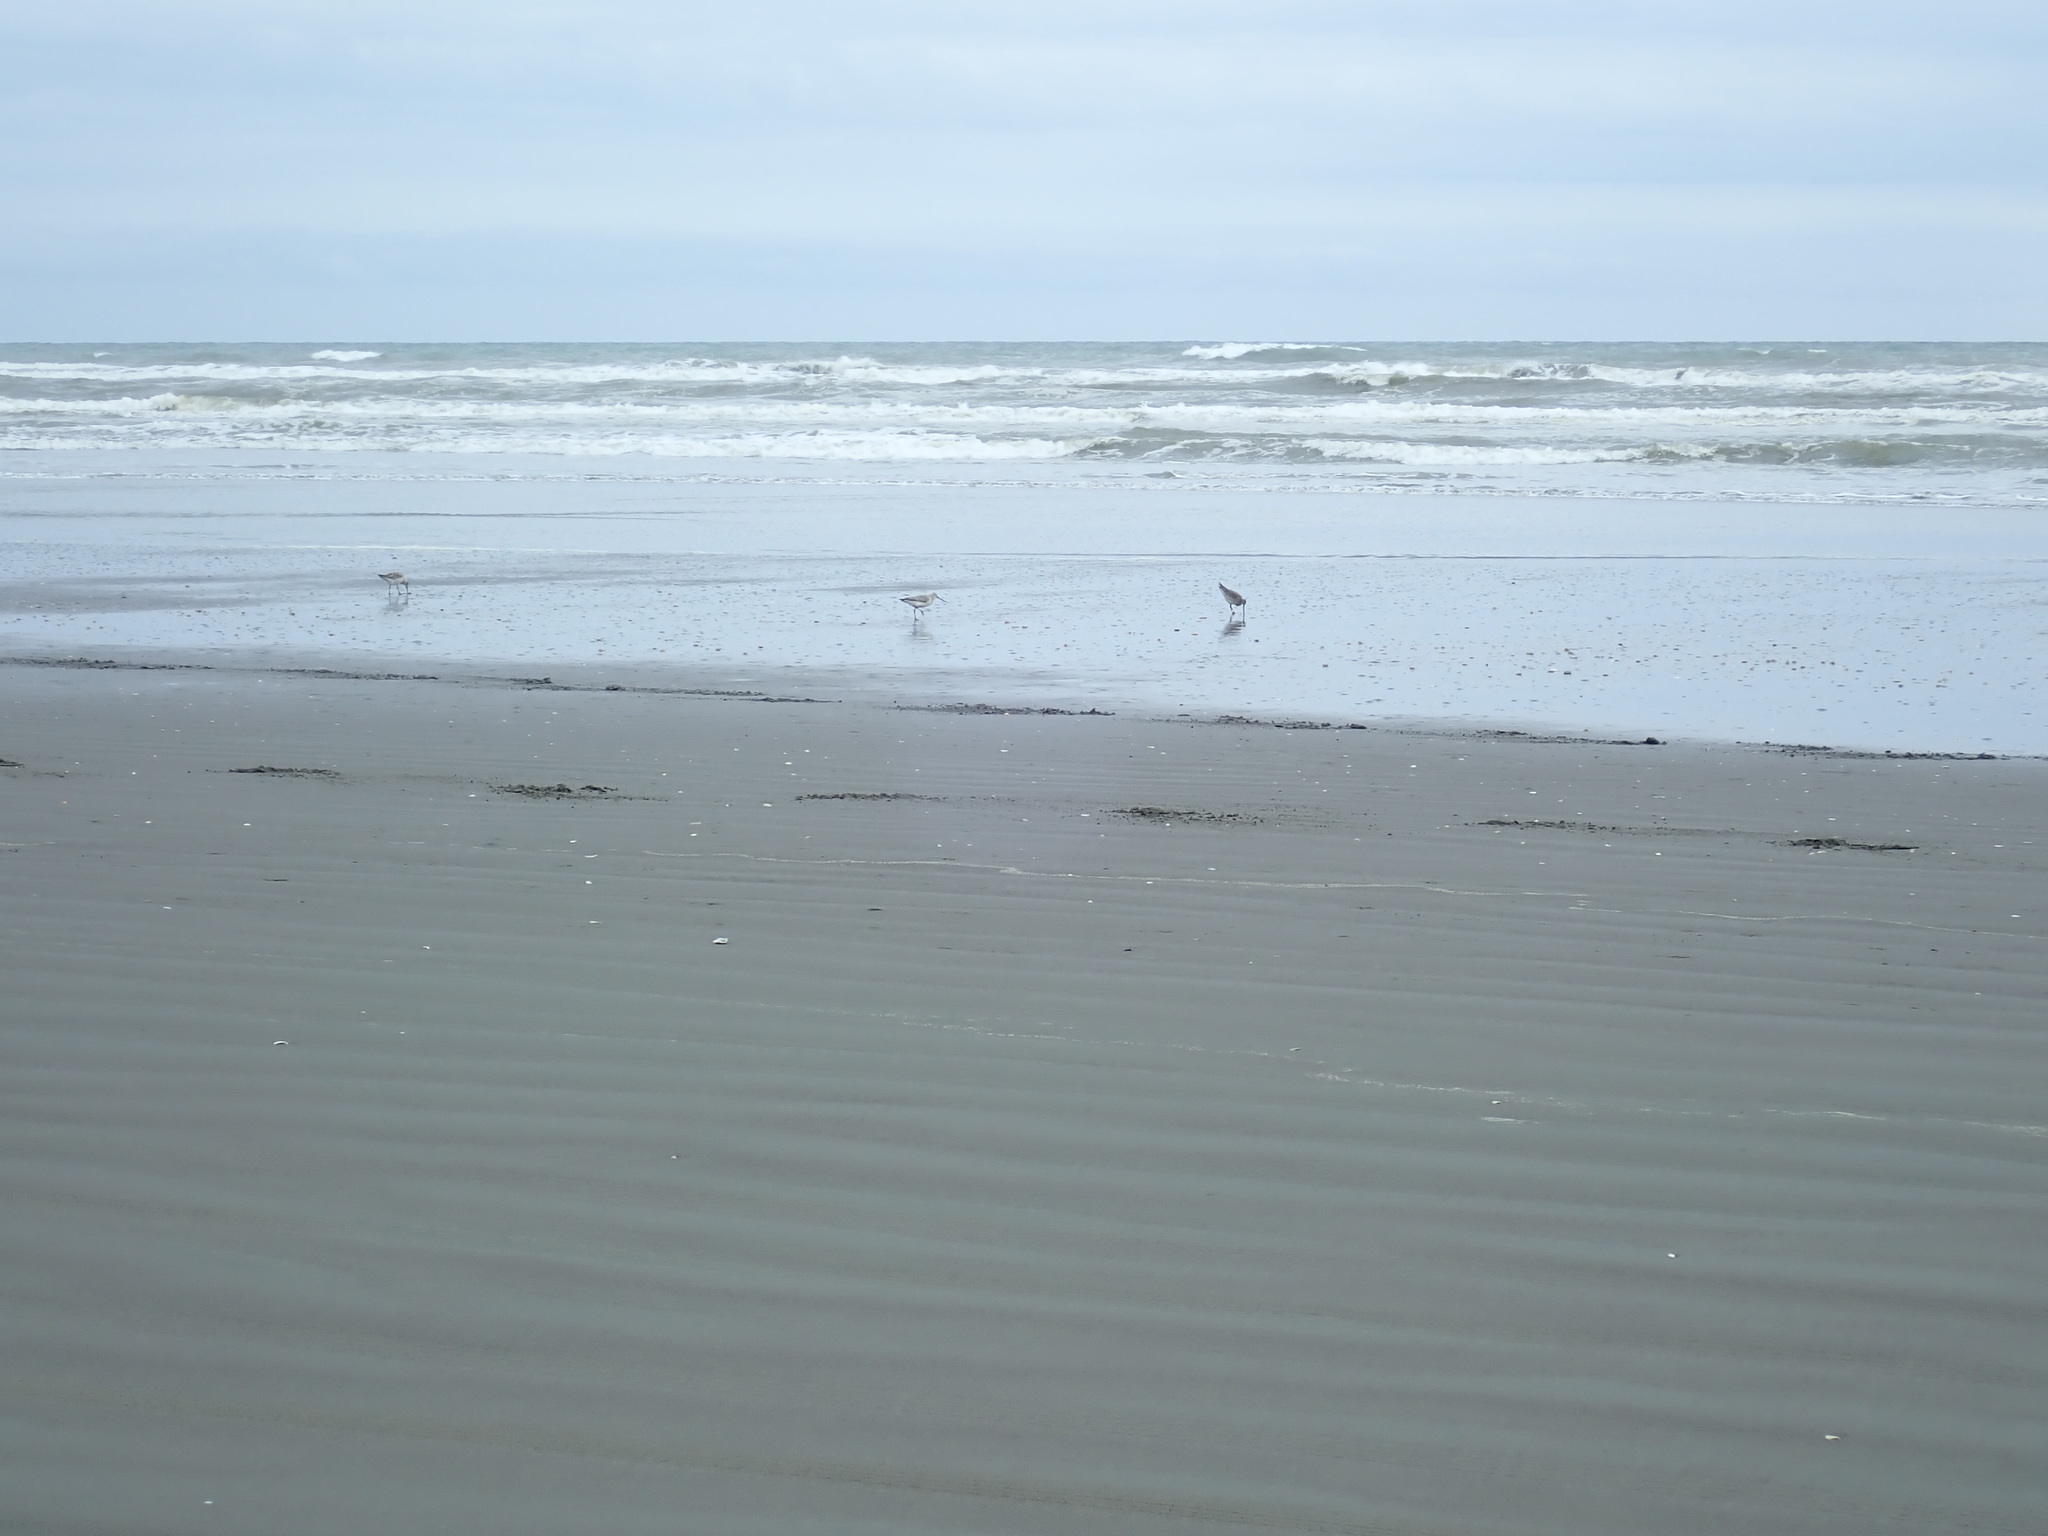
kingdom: Animalia
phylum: Chordata
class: Aves
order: Charadriiformes
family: Scolopacidae
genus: Limosa
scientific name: Limosa lapponica
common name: Bar-tailed godwit
